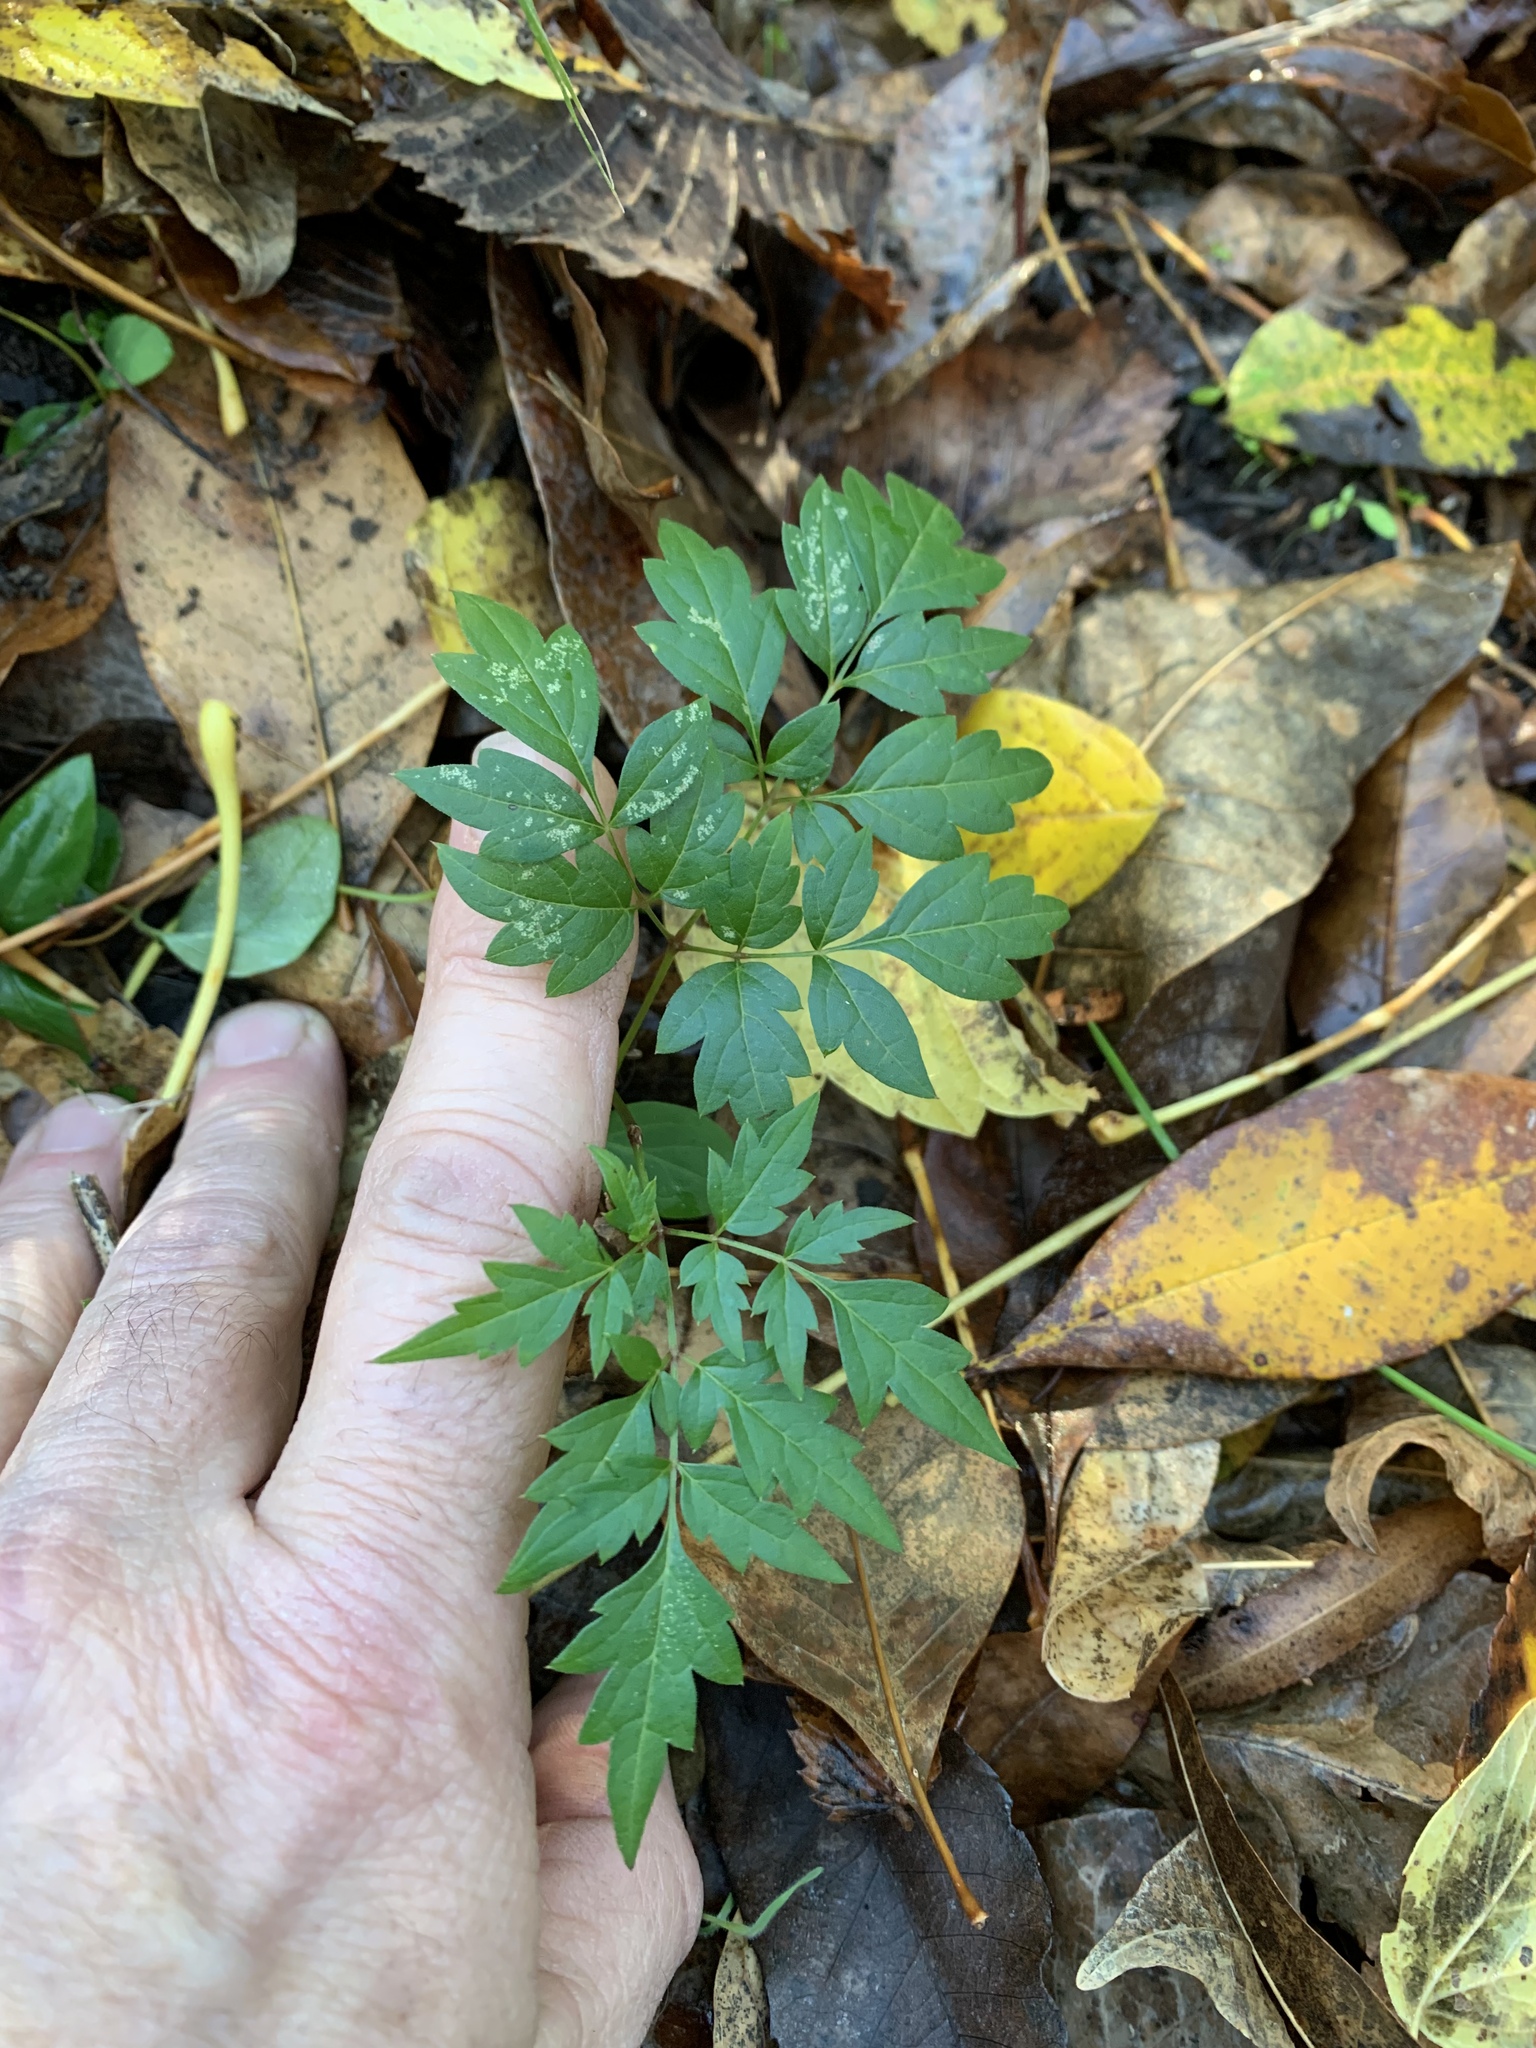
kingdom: Plantae
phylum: Tracheophyta
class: Magnoliopsida
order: Vitales
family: Vitaceae
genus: Nekemias
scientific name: Nekemias arborea
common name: Peppervine
